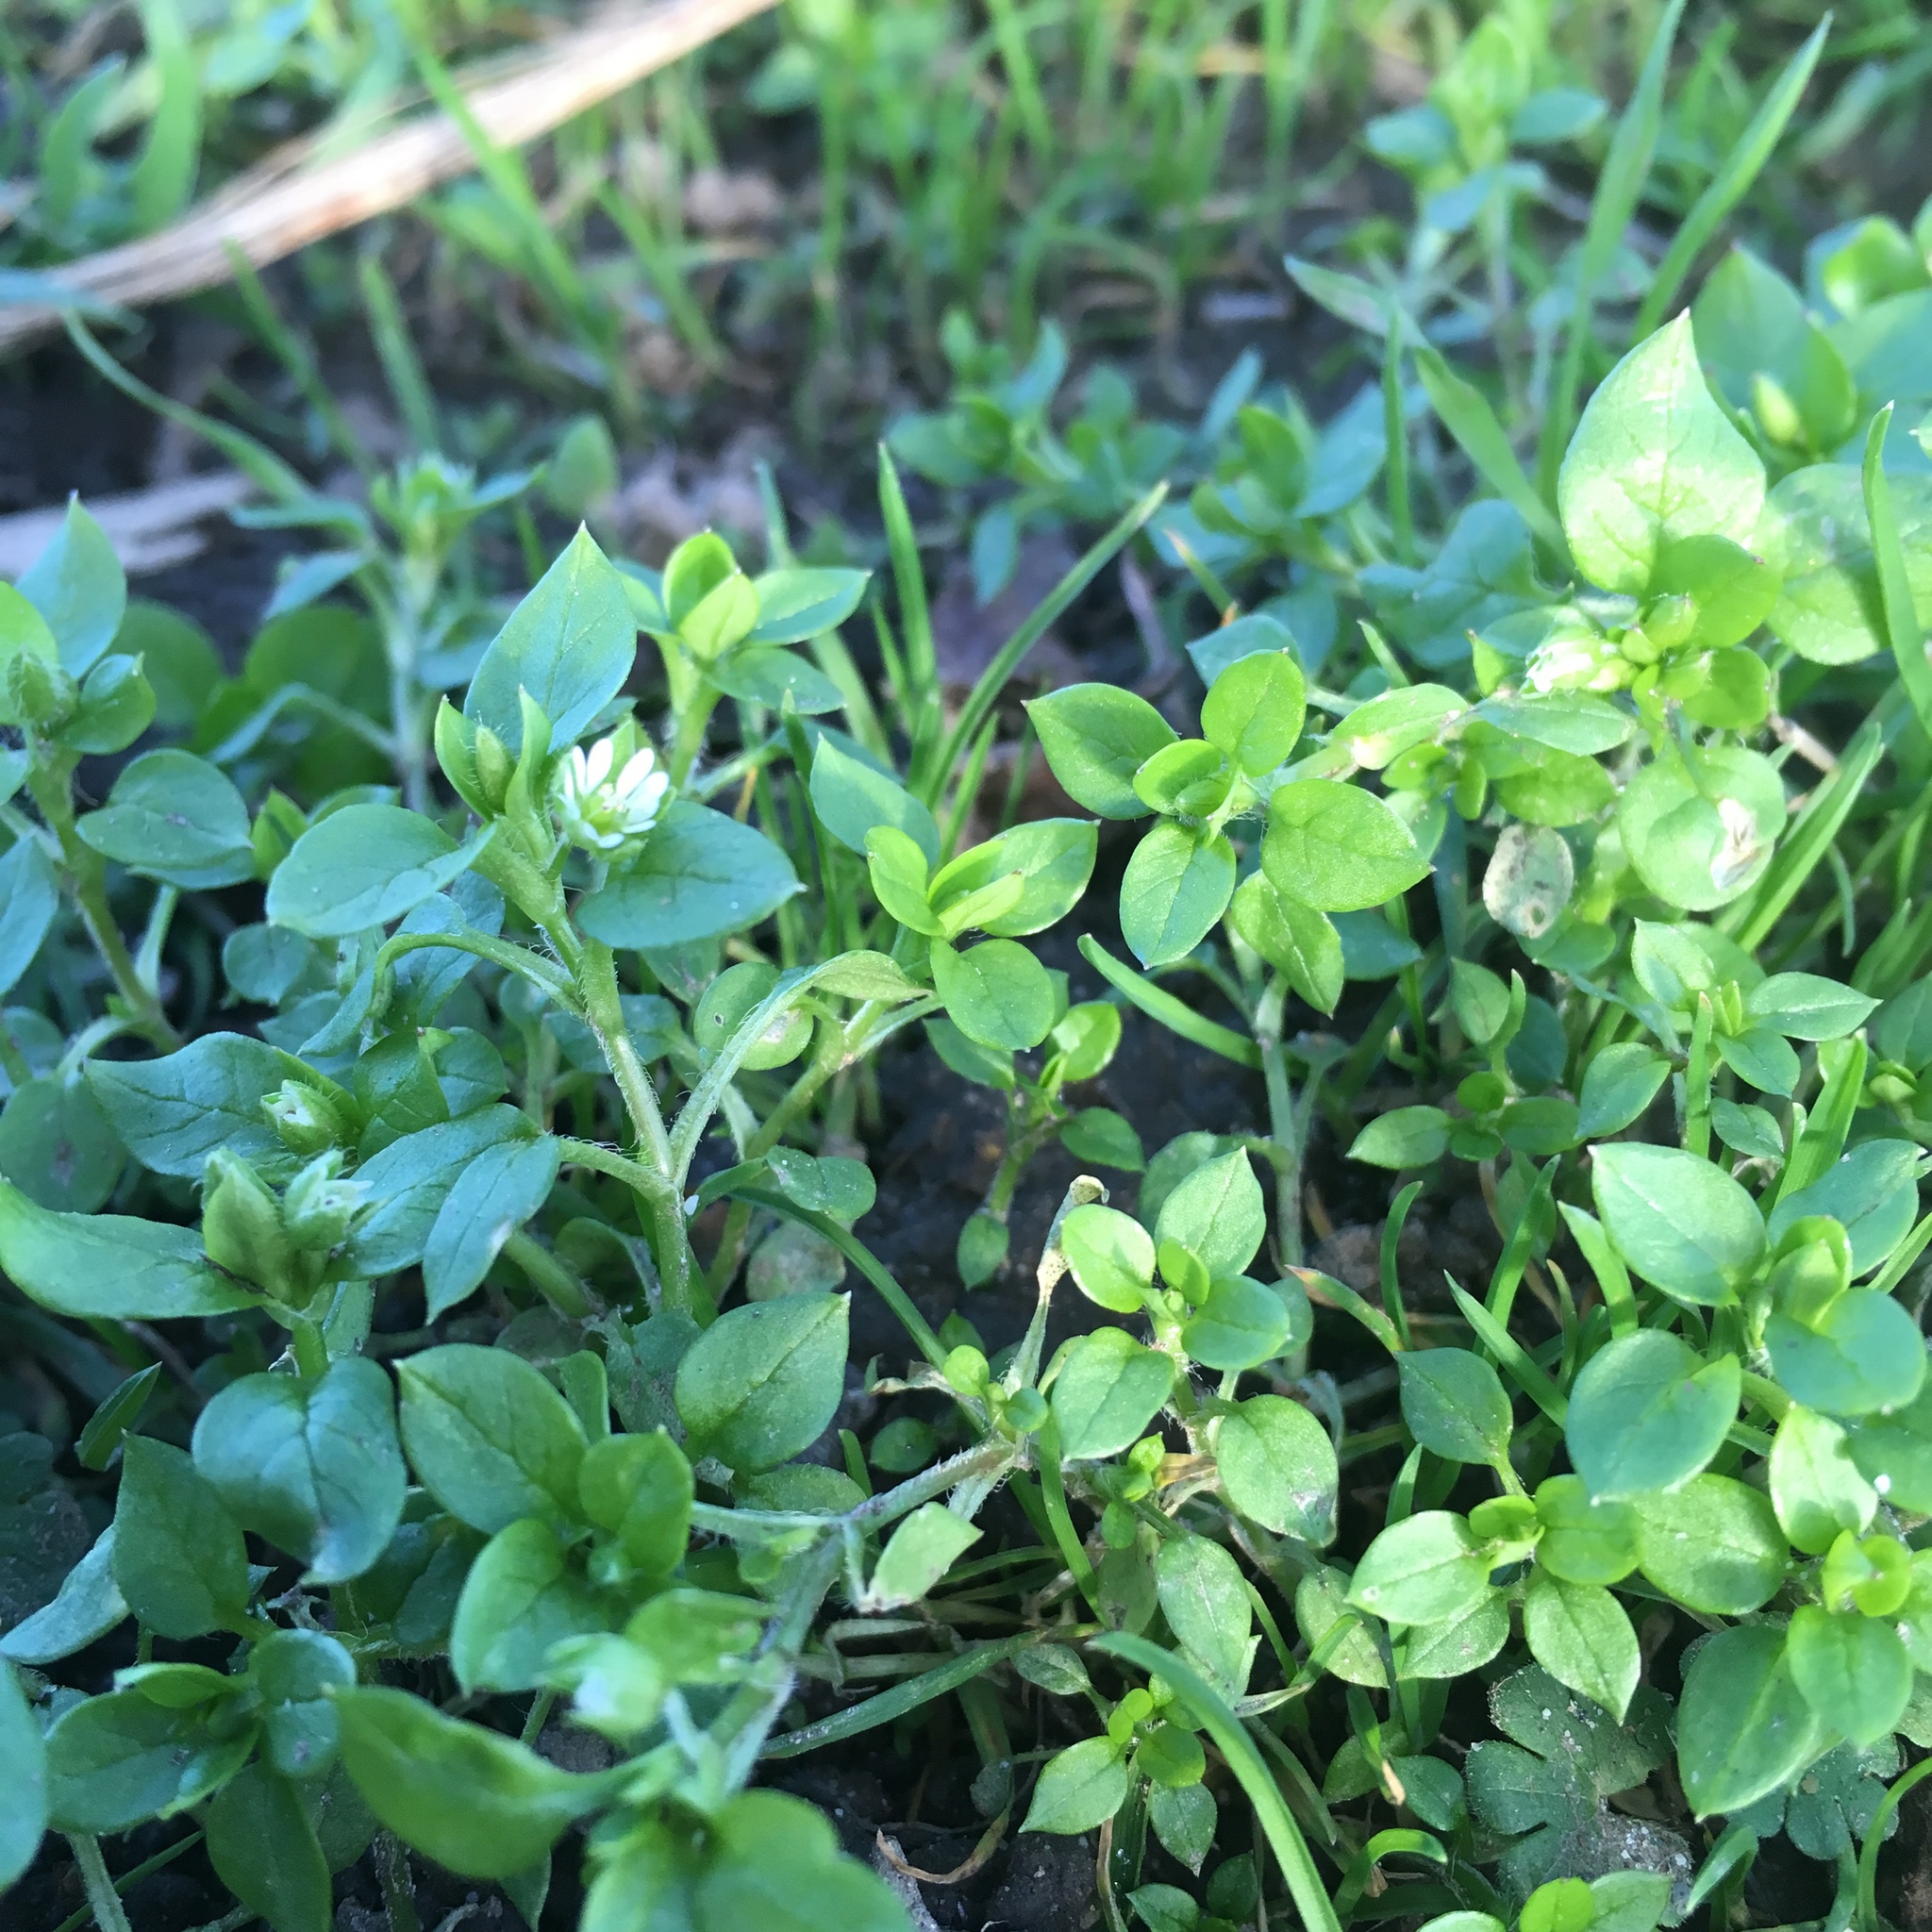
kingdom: Plantae
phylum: Tracheophyta
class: Magnoliopsida
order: Caryophyllales
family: Caryophyllaceae
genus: Stellaria
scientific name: Stellaria media
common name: Common chickweed
